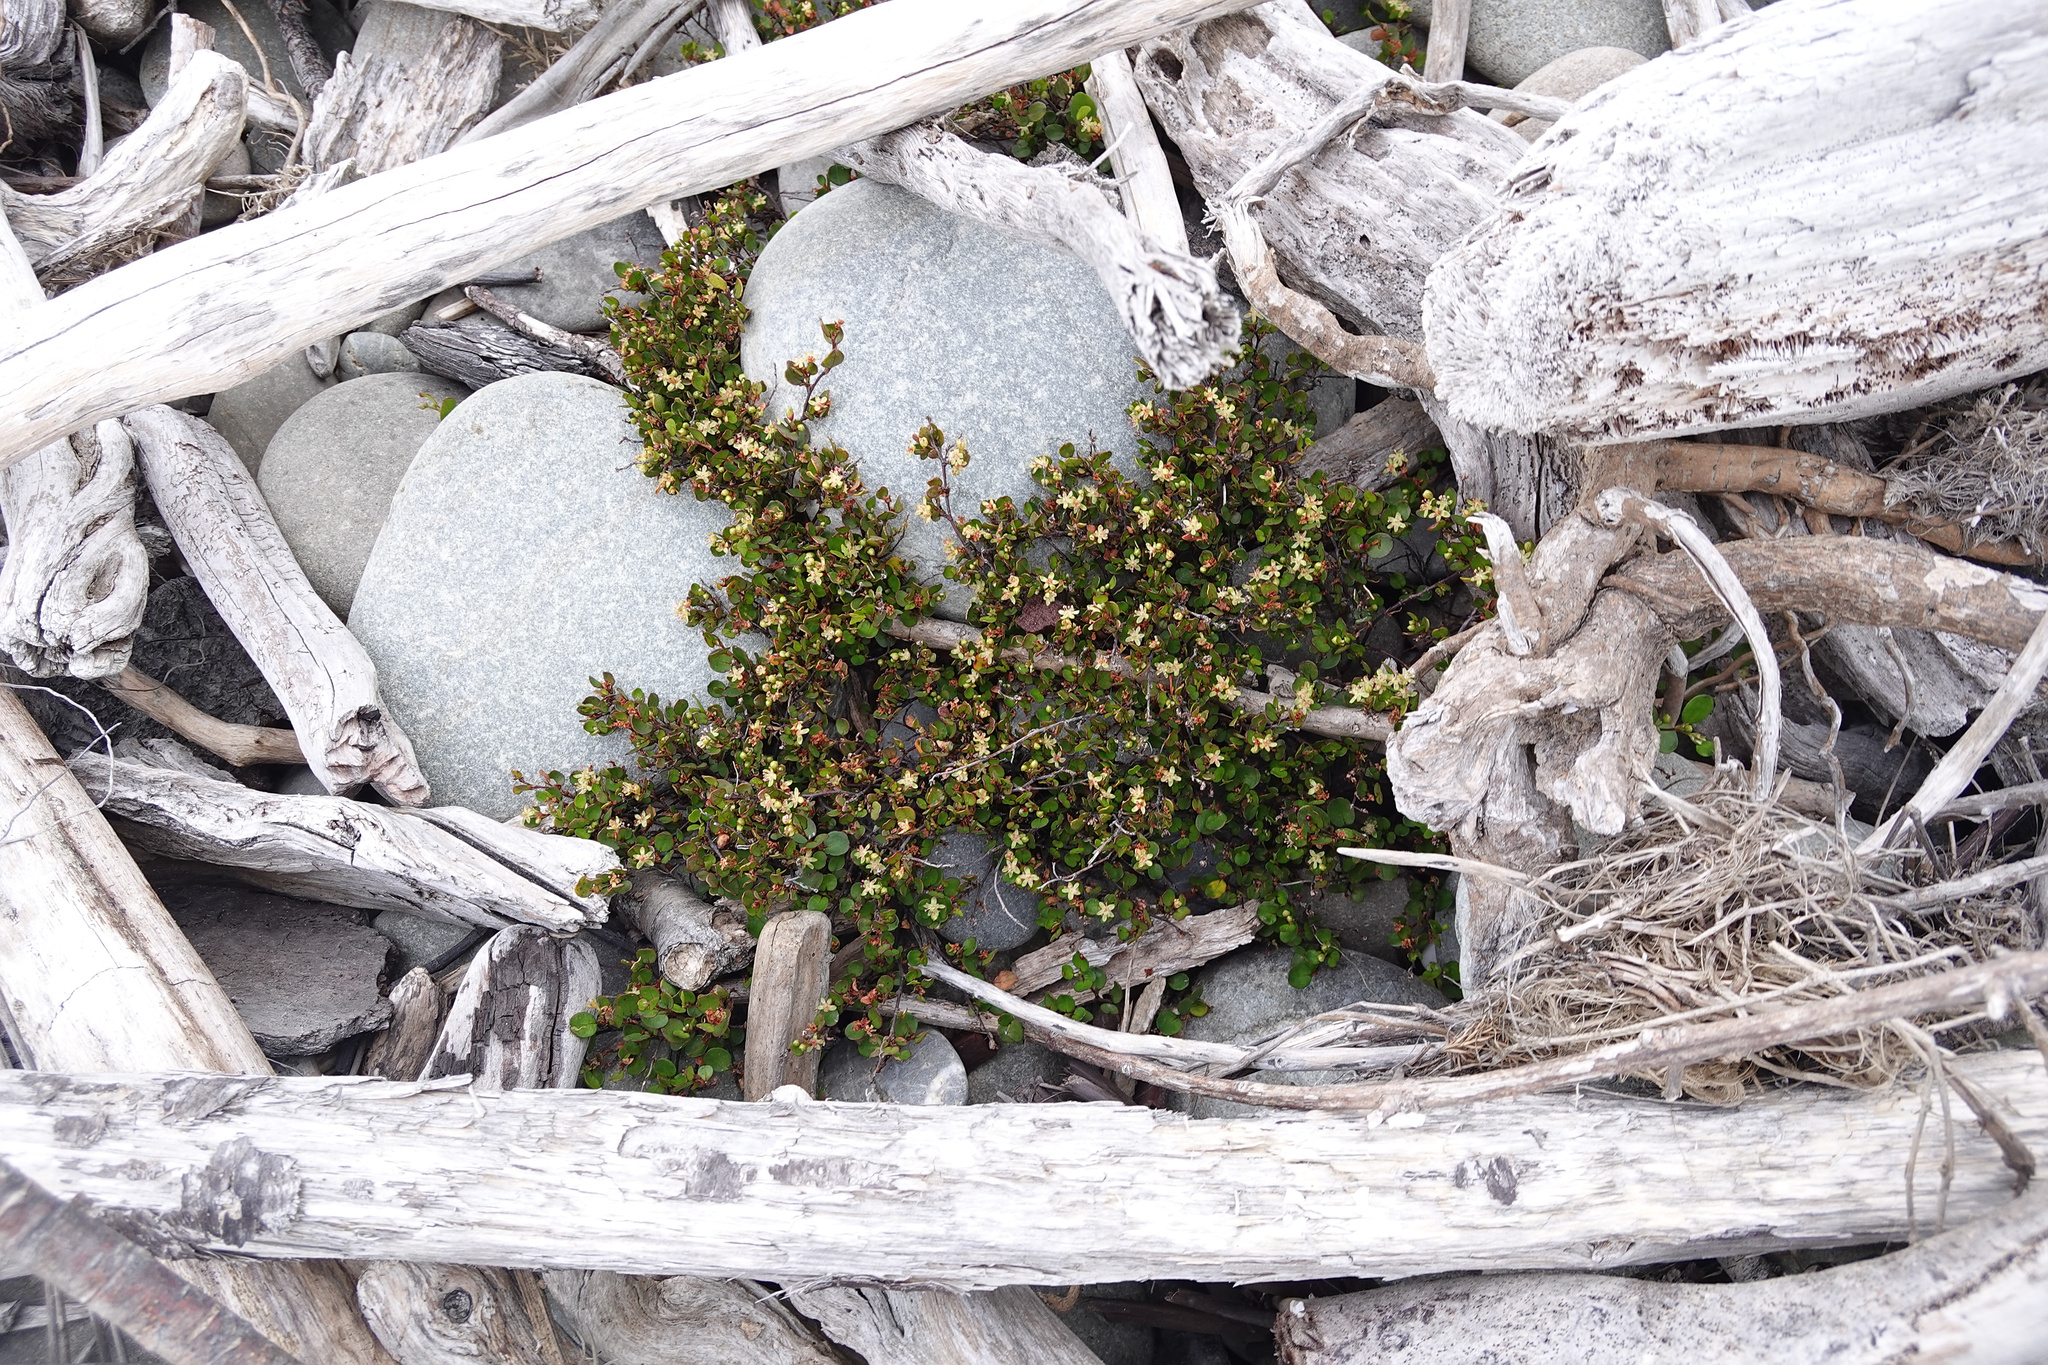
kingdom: Plantae
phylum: Tracheophyta
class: Magnoliopsida
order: Caryophyllales
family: Polygonaceae
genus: Muehlenbeckia
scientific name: Muehlenbeckia axillaris
